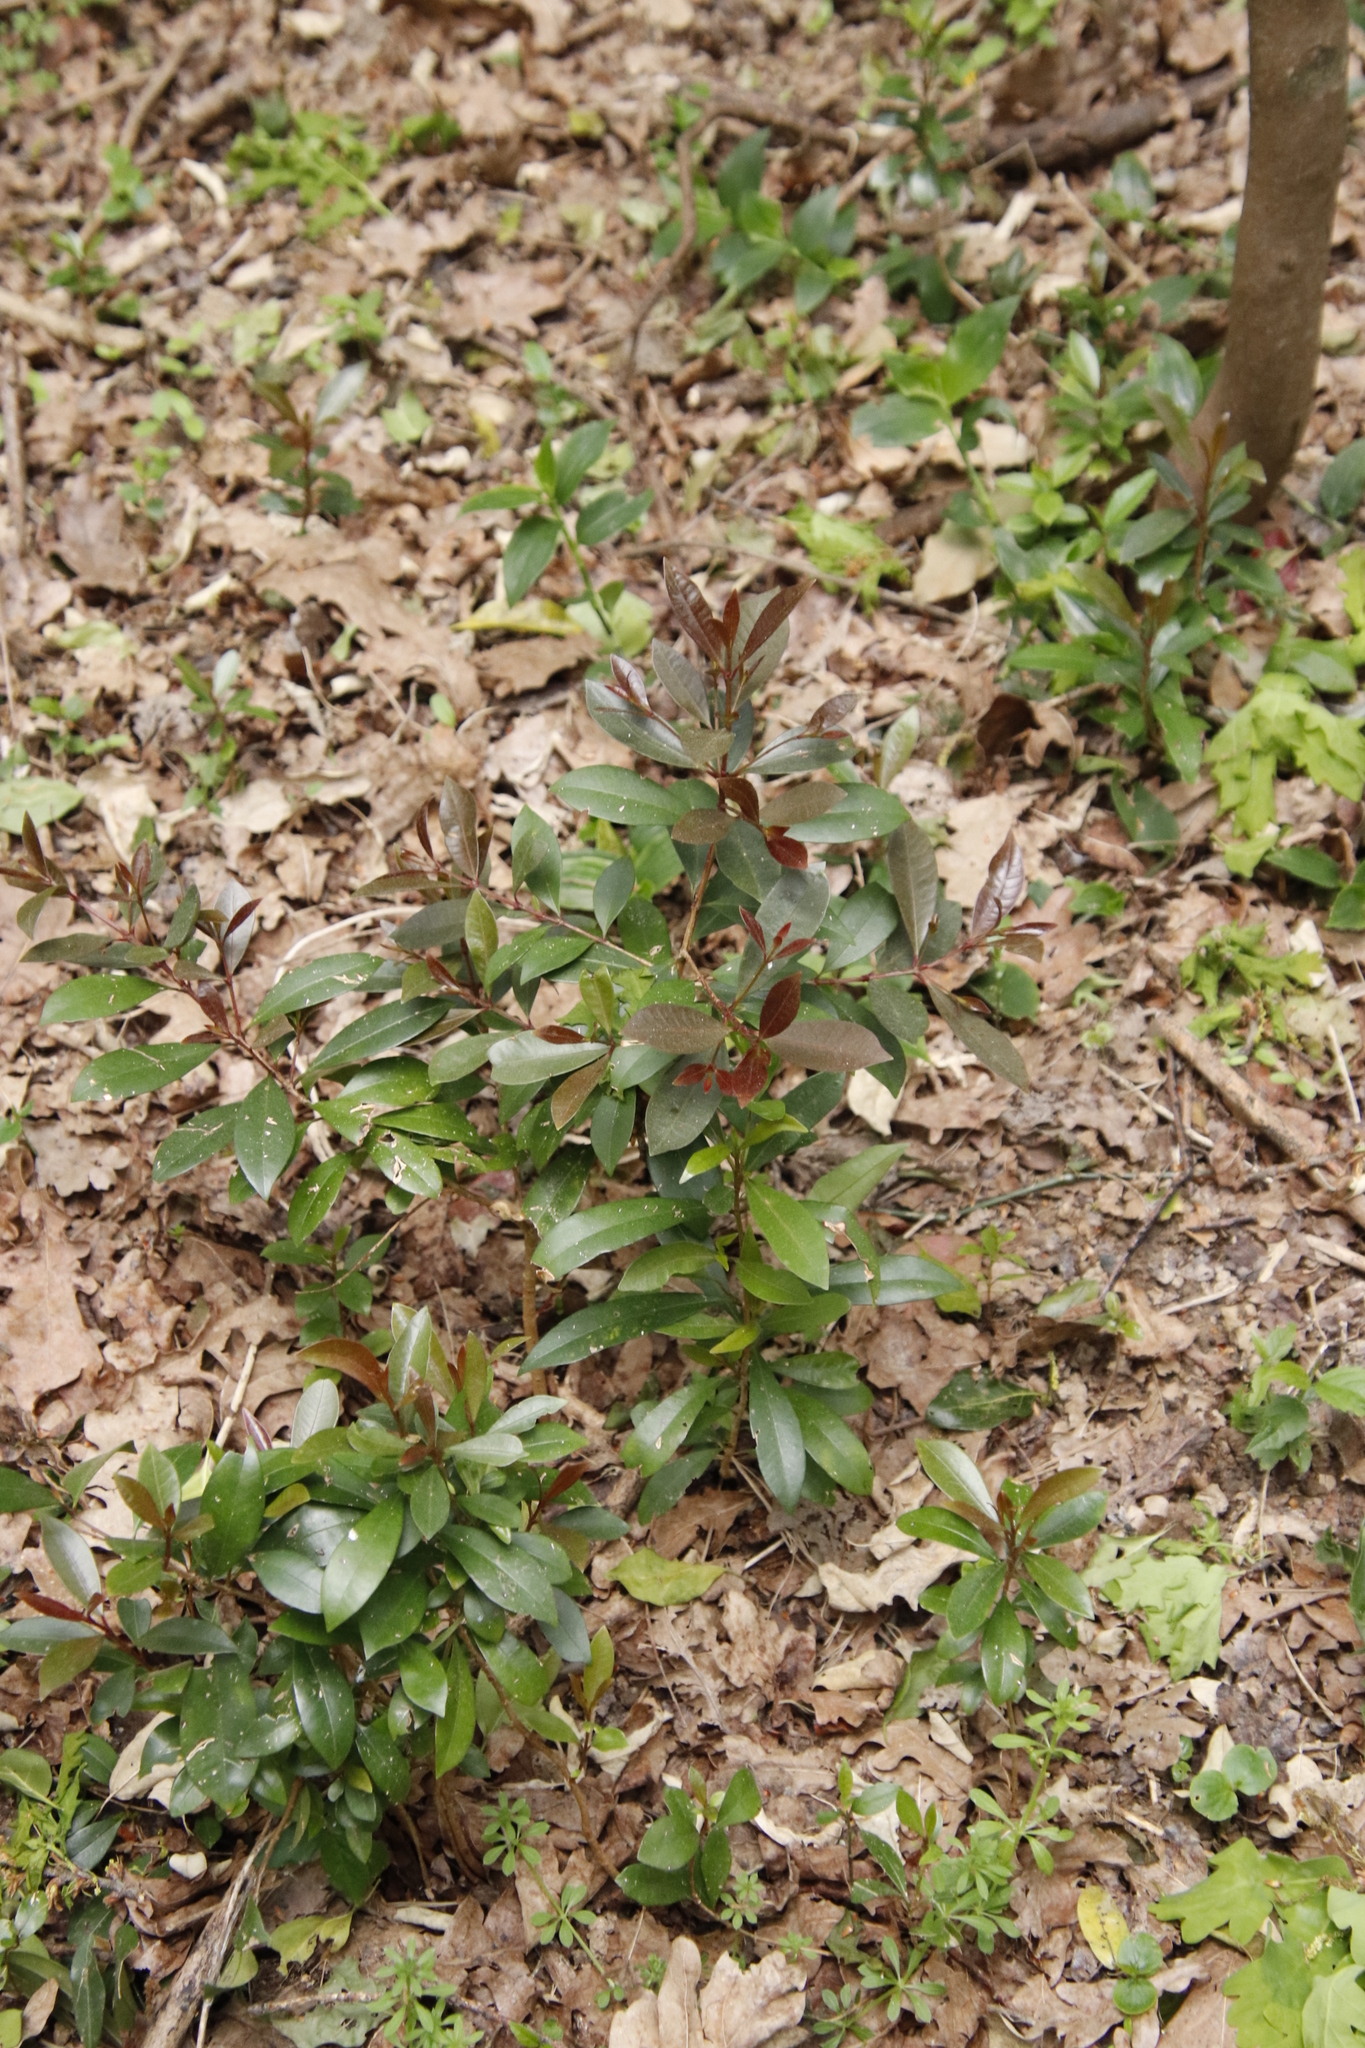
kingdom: Plantae
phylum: Tracheophyta
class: Magnoliopsida
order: Myrtales
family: Myrtaceae
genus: Syzygium
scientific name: Syzygium australe
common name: Australian brush-cherry
